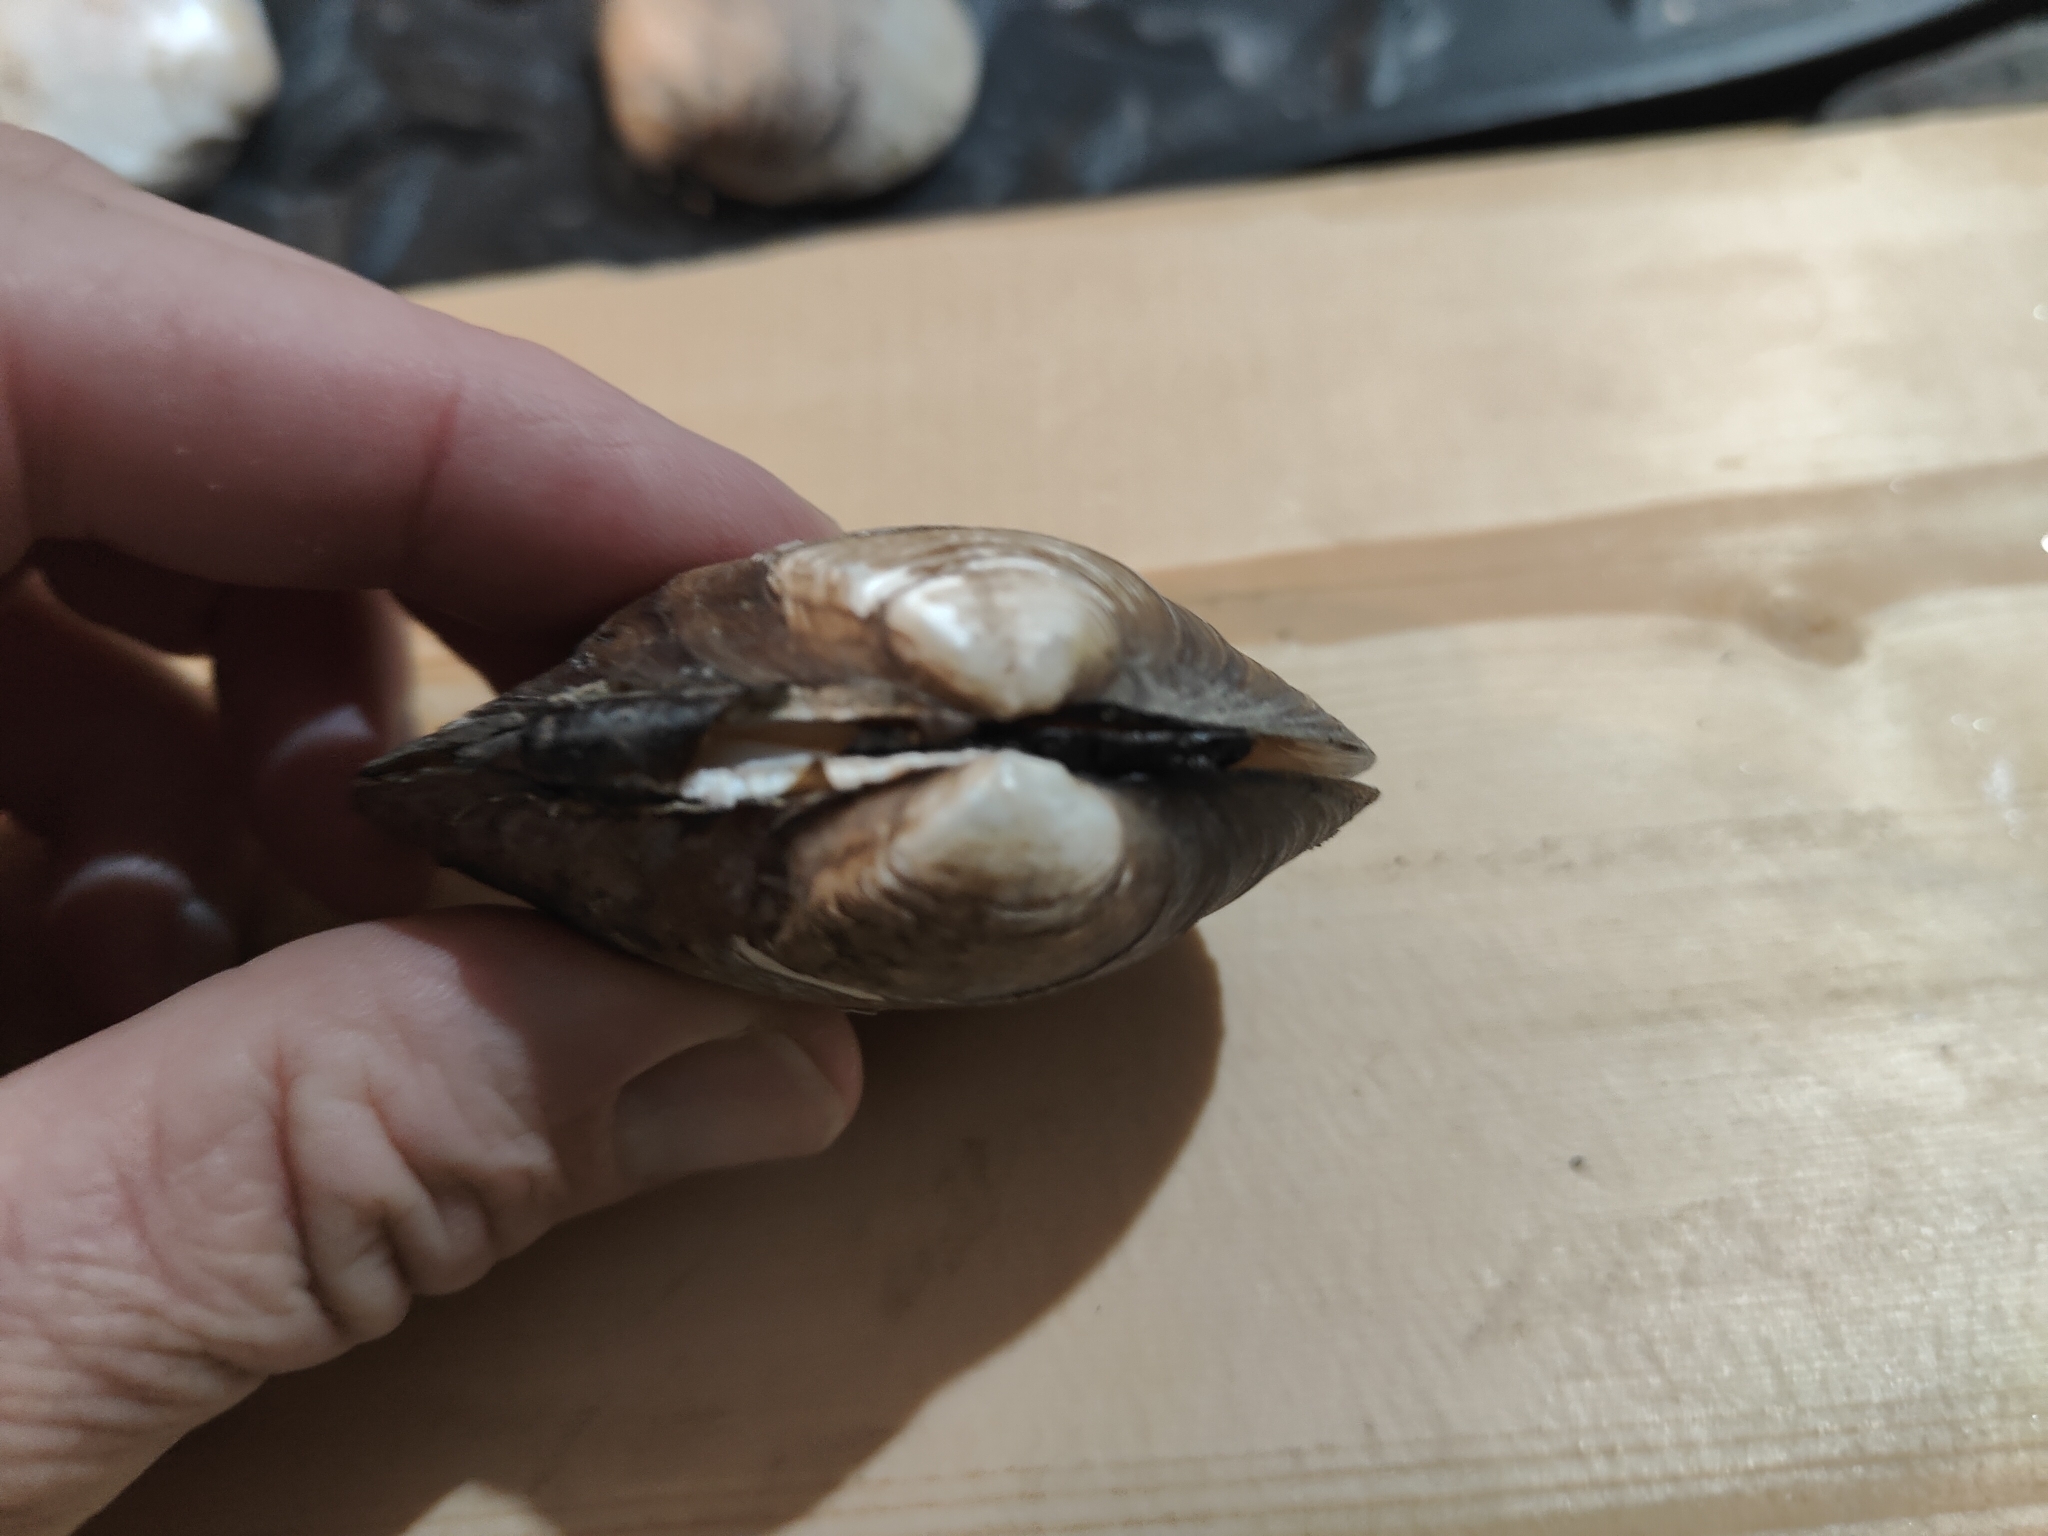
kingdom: Animalia
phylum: Mollusca
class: Bivalvia
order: Unionida
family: Unionidae
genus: Fusconaia
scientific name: Fusconaia flava
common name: Wabash pigtoe
